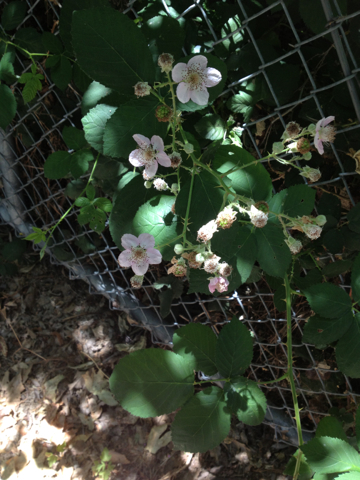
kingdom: Plantae
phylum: Tracheophyta
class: Magnoliopsida
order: Rosales
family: Rosaceae
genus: Rubus
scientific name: Rubus armeniacus
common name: Himalayan blackberry
